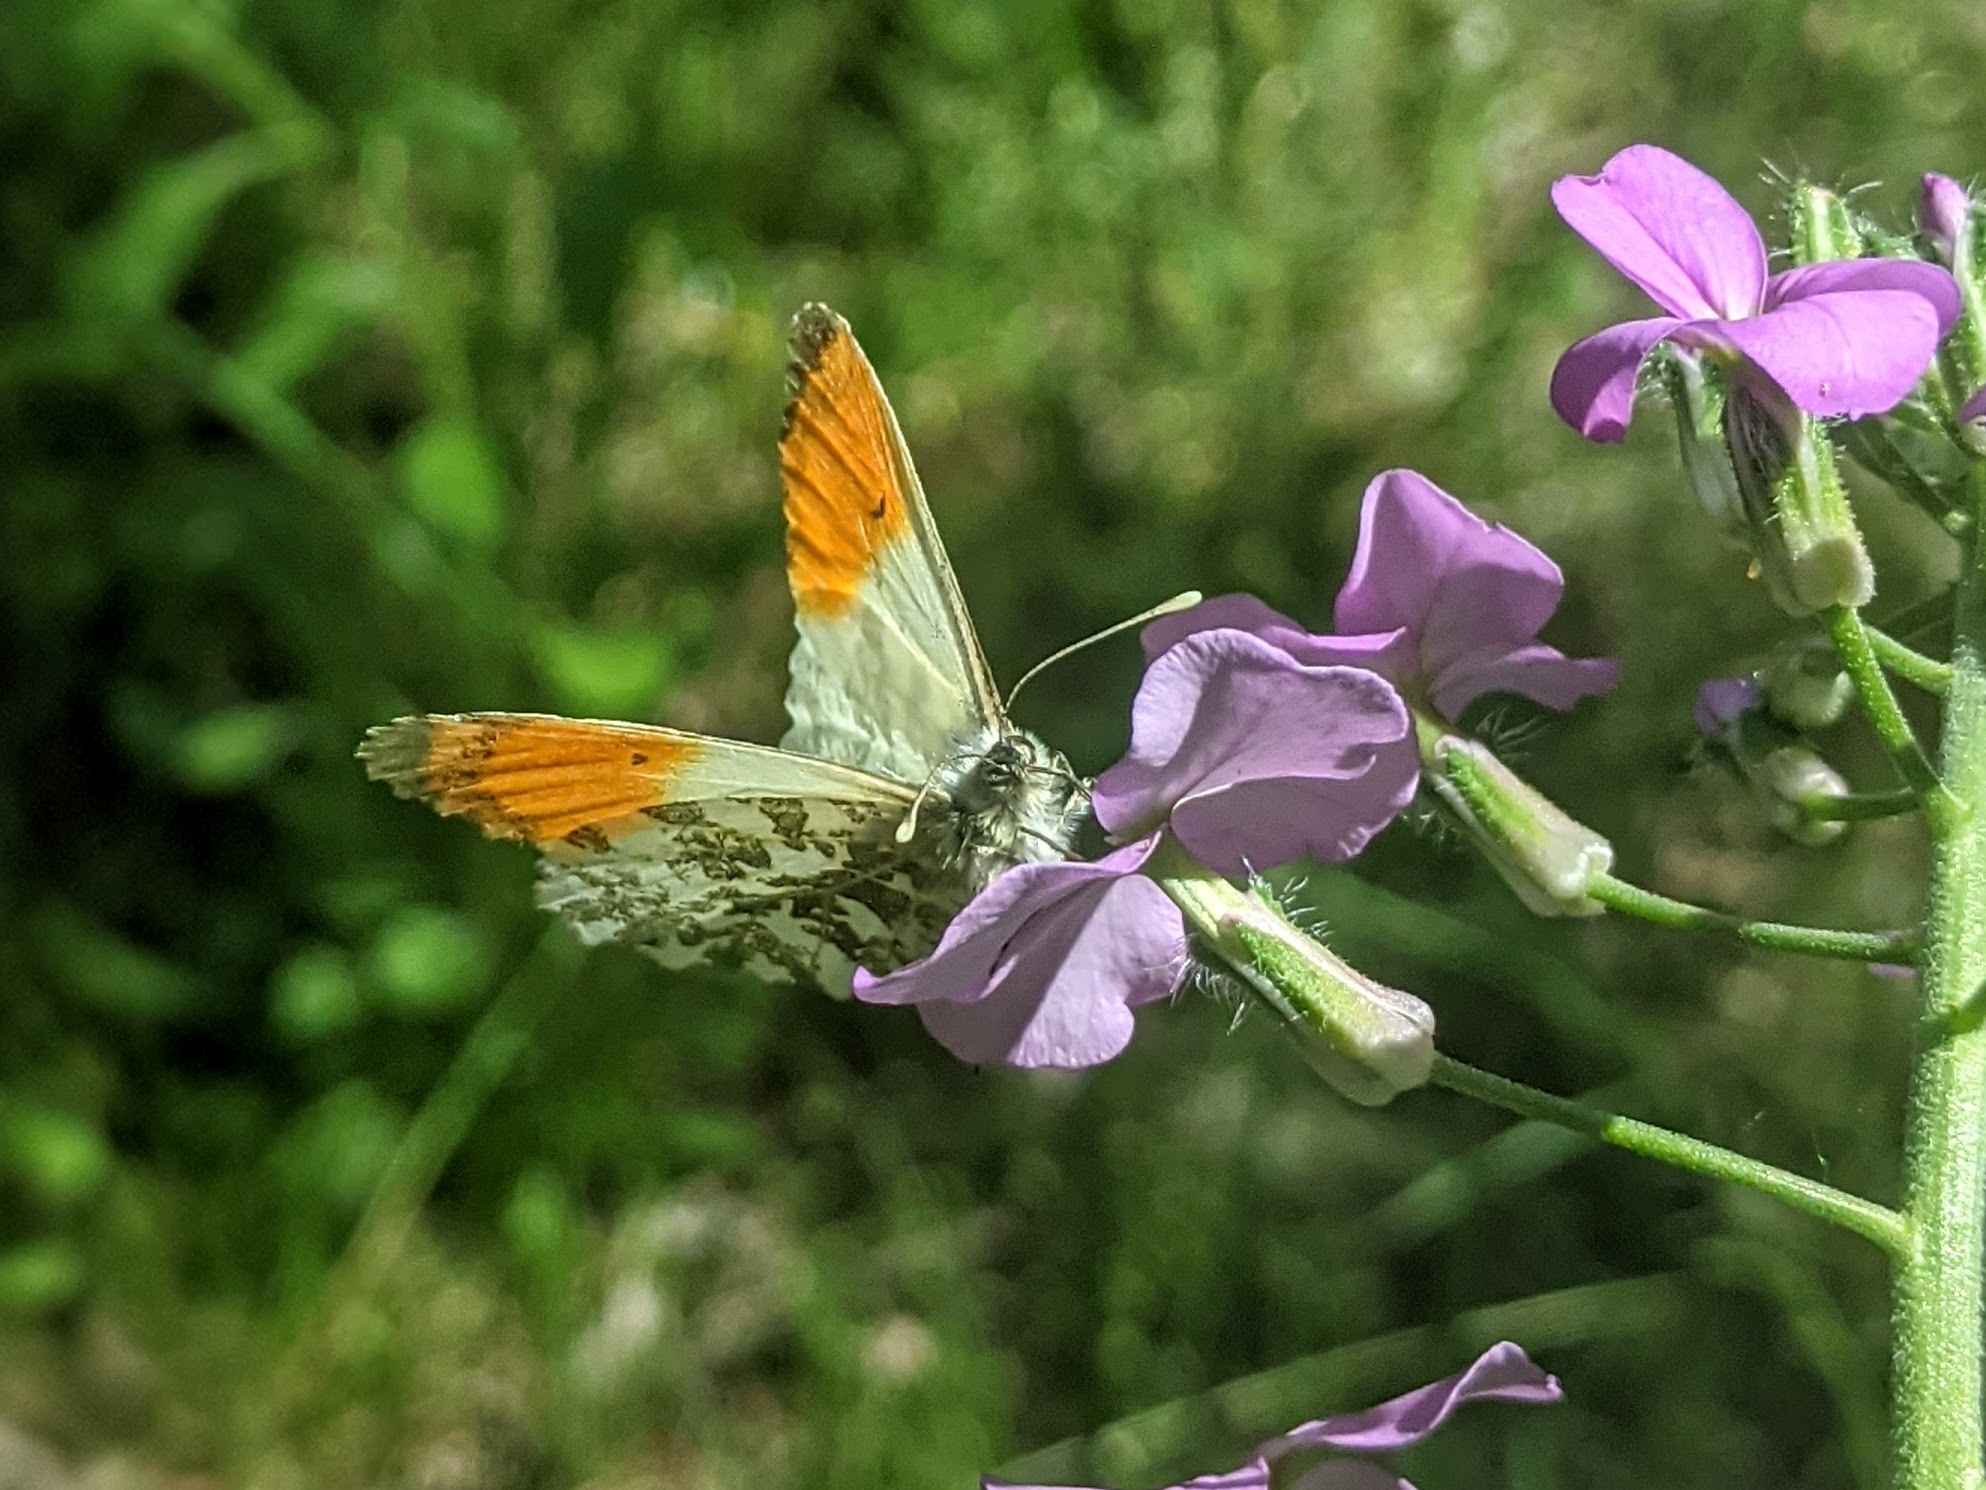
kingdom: Animalia
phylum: Arthropoda
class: Insecta
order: Lepidoptera
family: Pieridae
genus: Anthocharis
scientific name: Anthocharis cardamines
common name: Orange-tip
